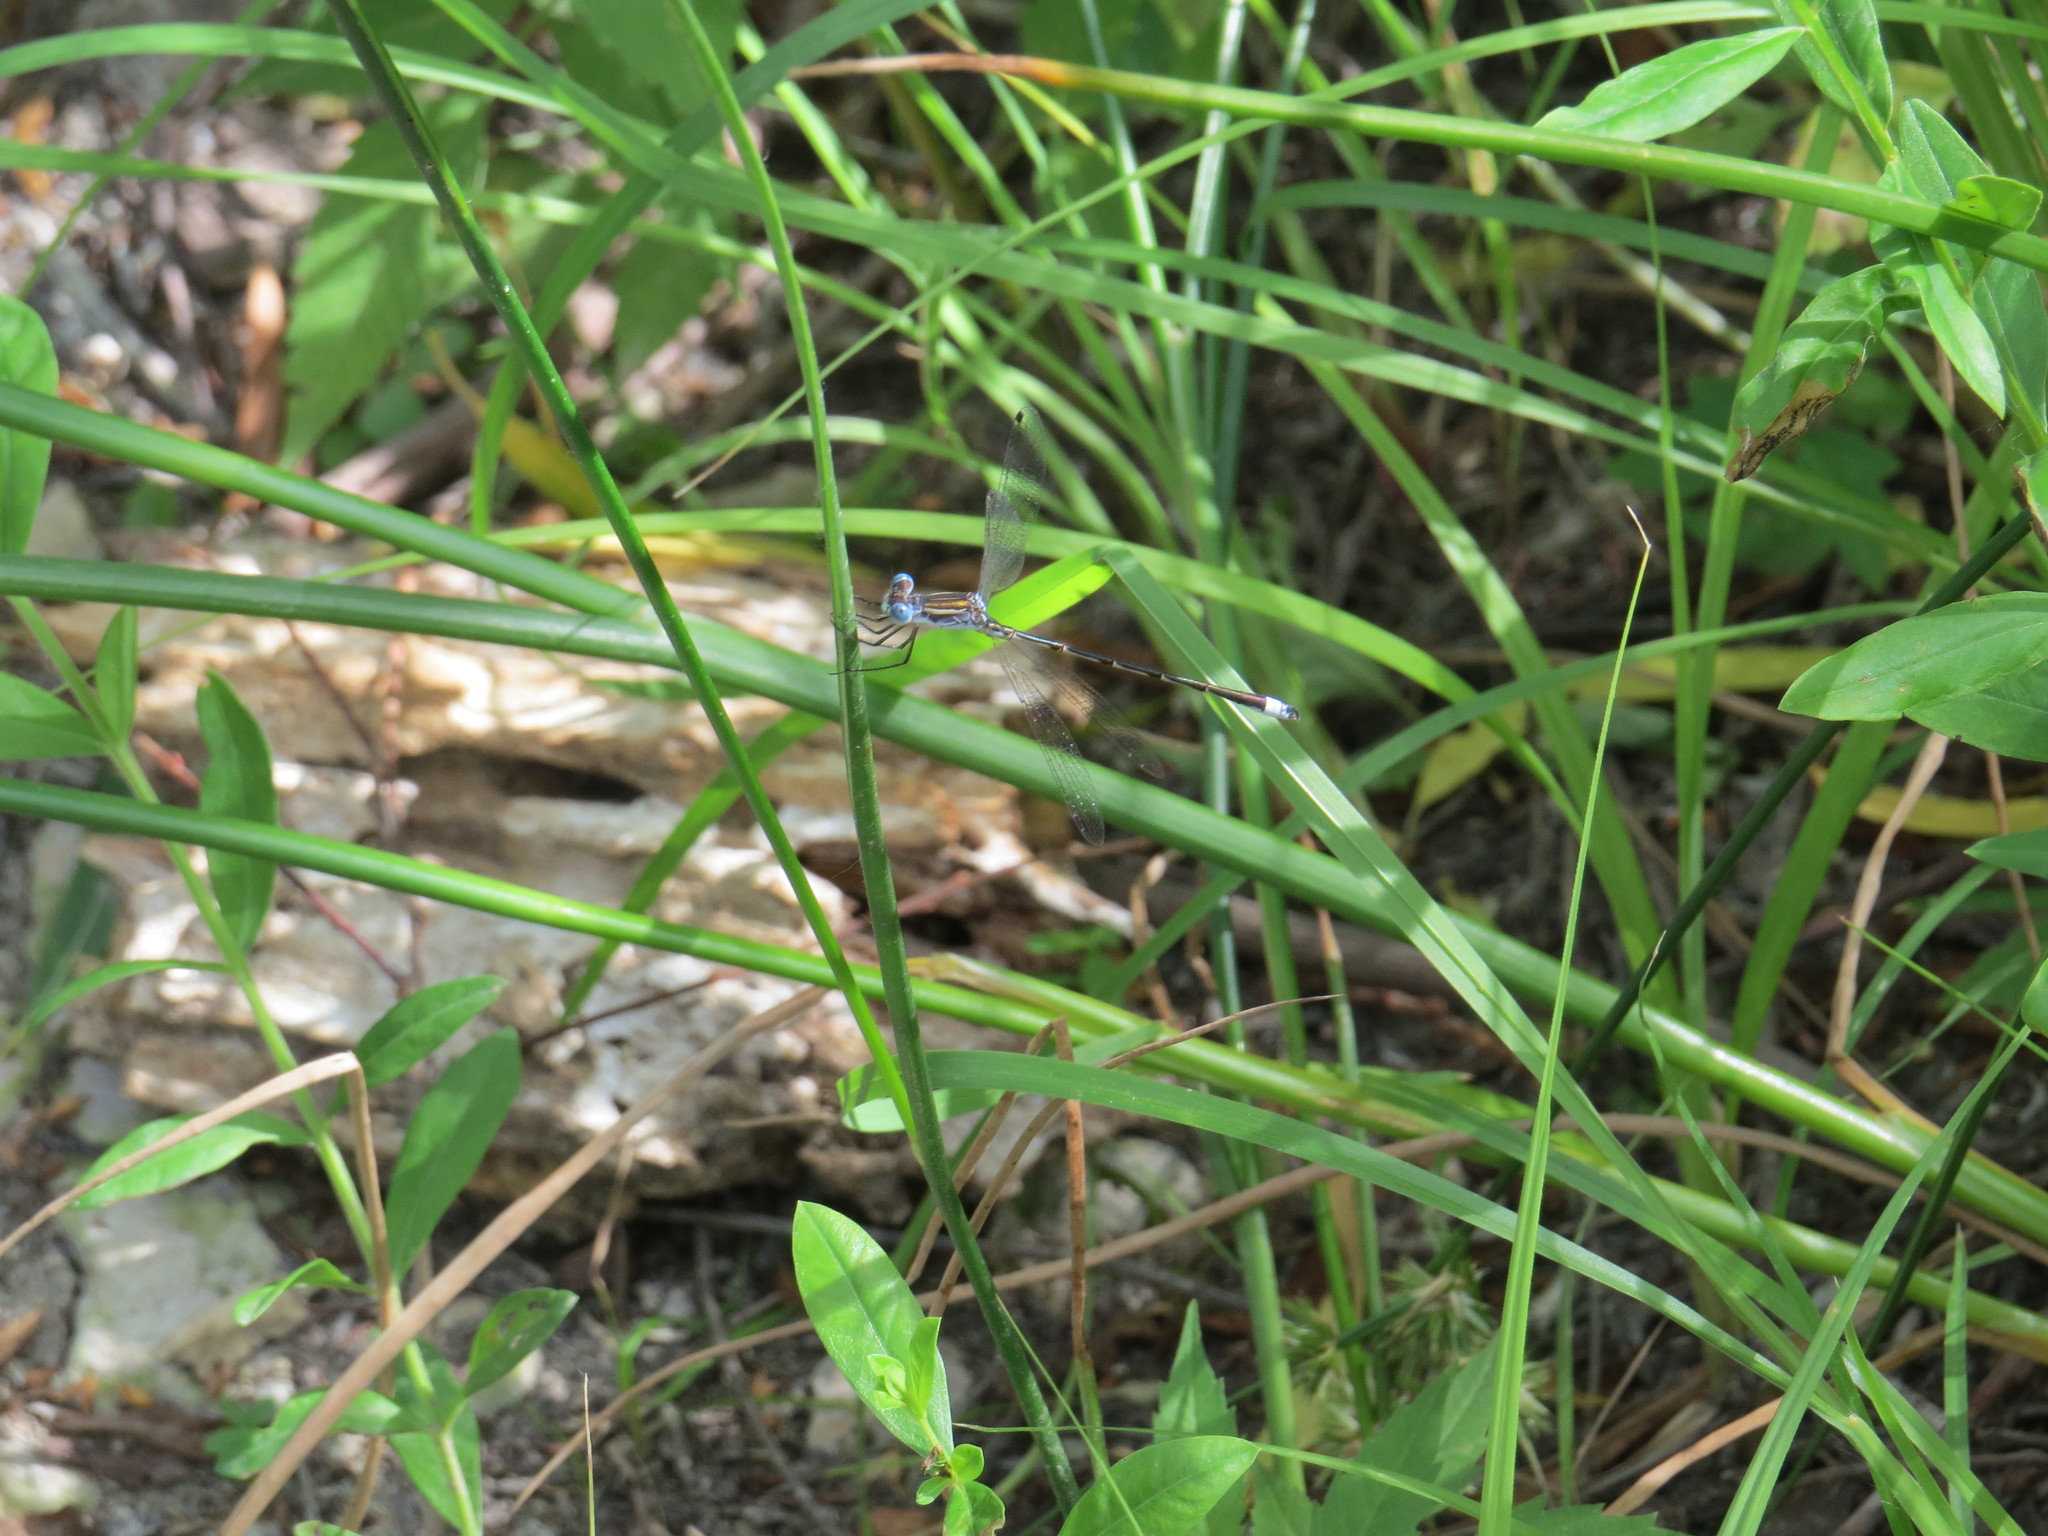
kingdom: Animalia
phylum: Arthropoda
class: Insecta
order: Odonata
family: Lestidae
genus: Lestes
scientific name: Lestes australis
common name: Southern spreadwing
